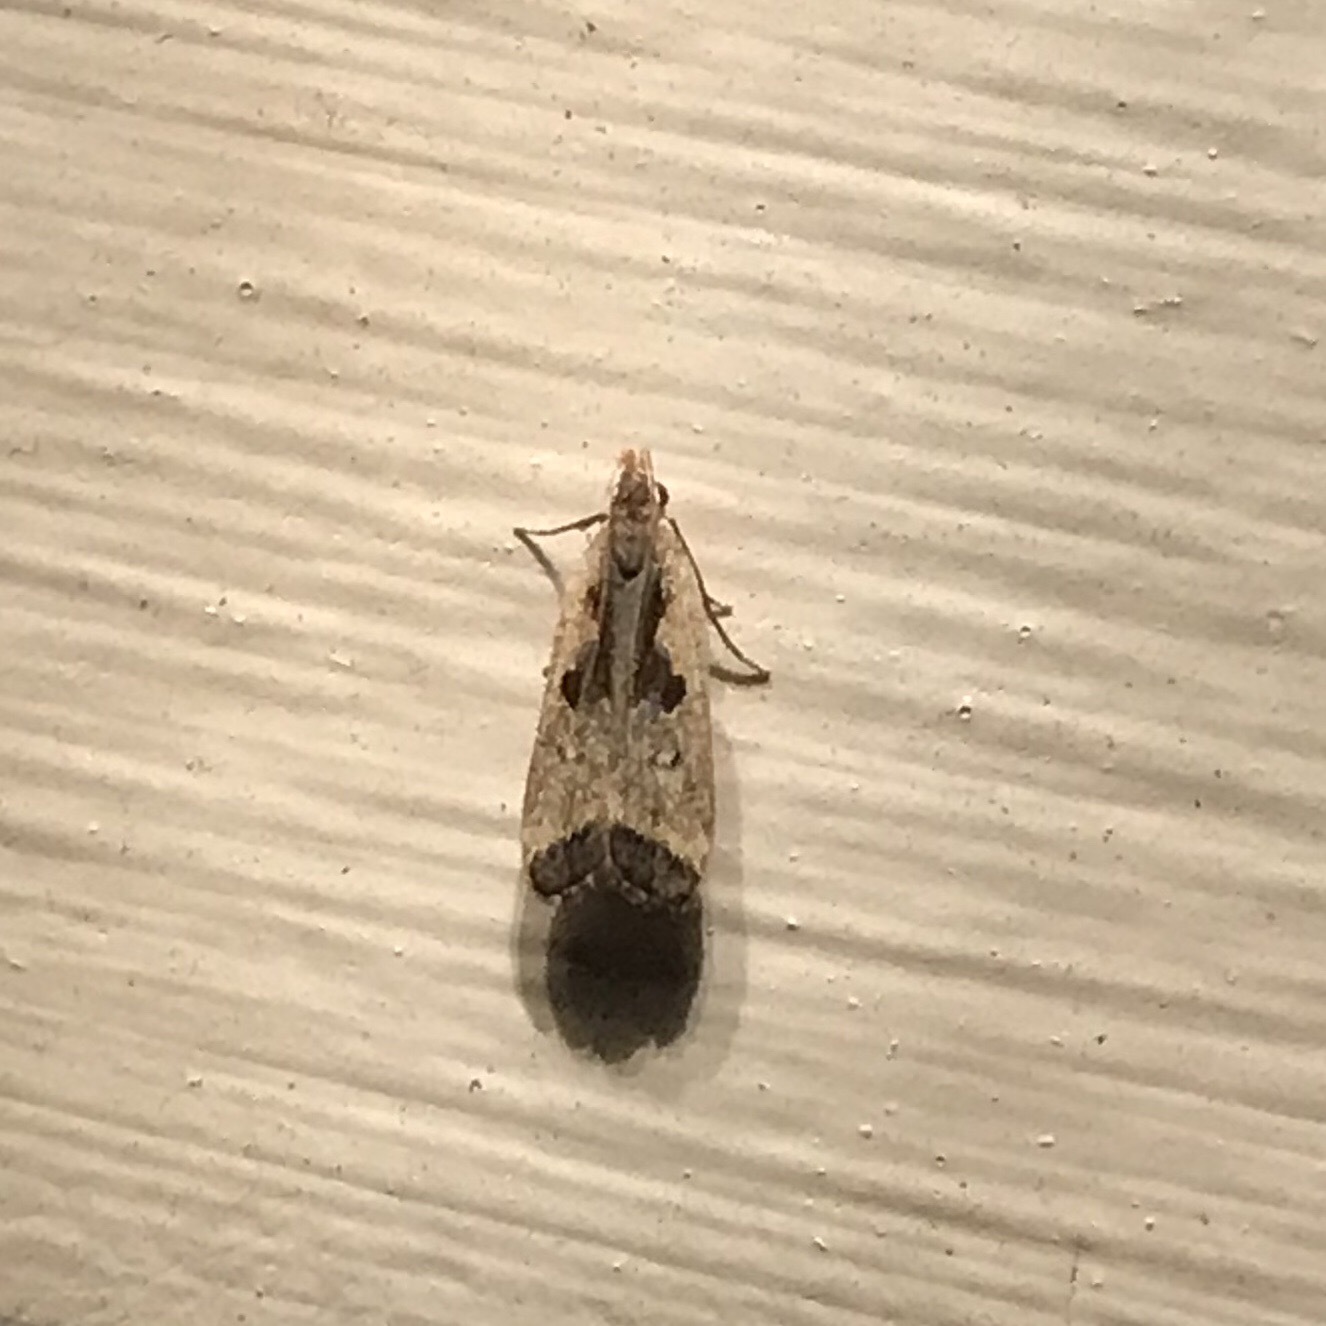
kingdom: Animalia
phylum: Arthropoda
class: Insecta
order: Lepidoptera
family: Gelechiidae
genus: Dichomeris
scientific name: Dichomeris furia
